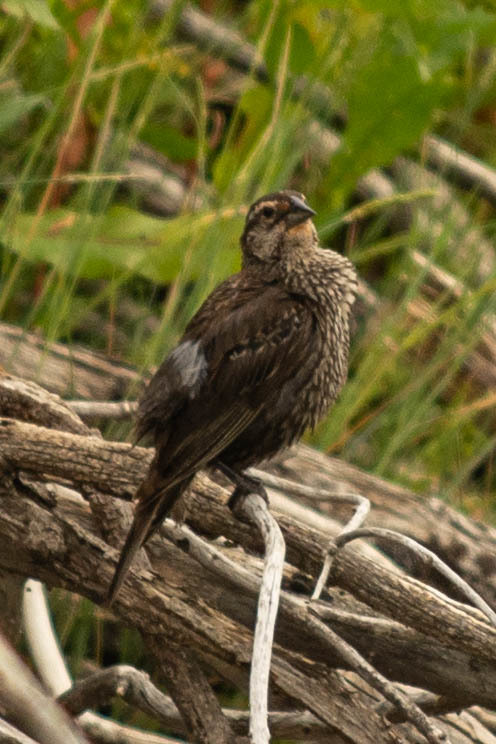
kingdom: Animalia
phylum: Chordata
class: Aves
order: Passeriformes
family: Icteridae
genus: Agelaius
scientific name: Agelaius phoeniceus
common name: Red-winged blackbird
